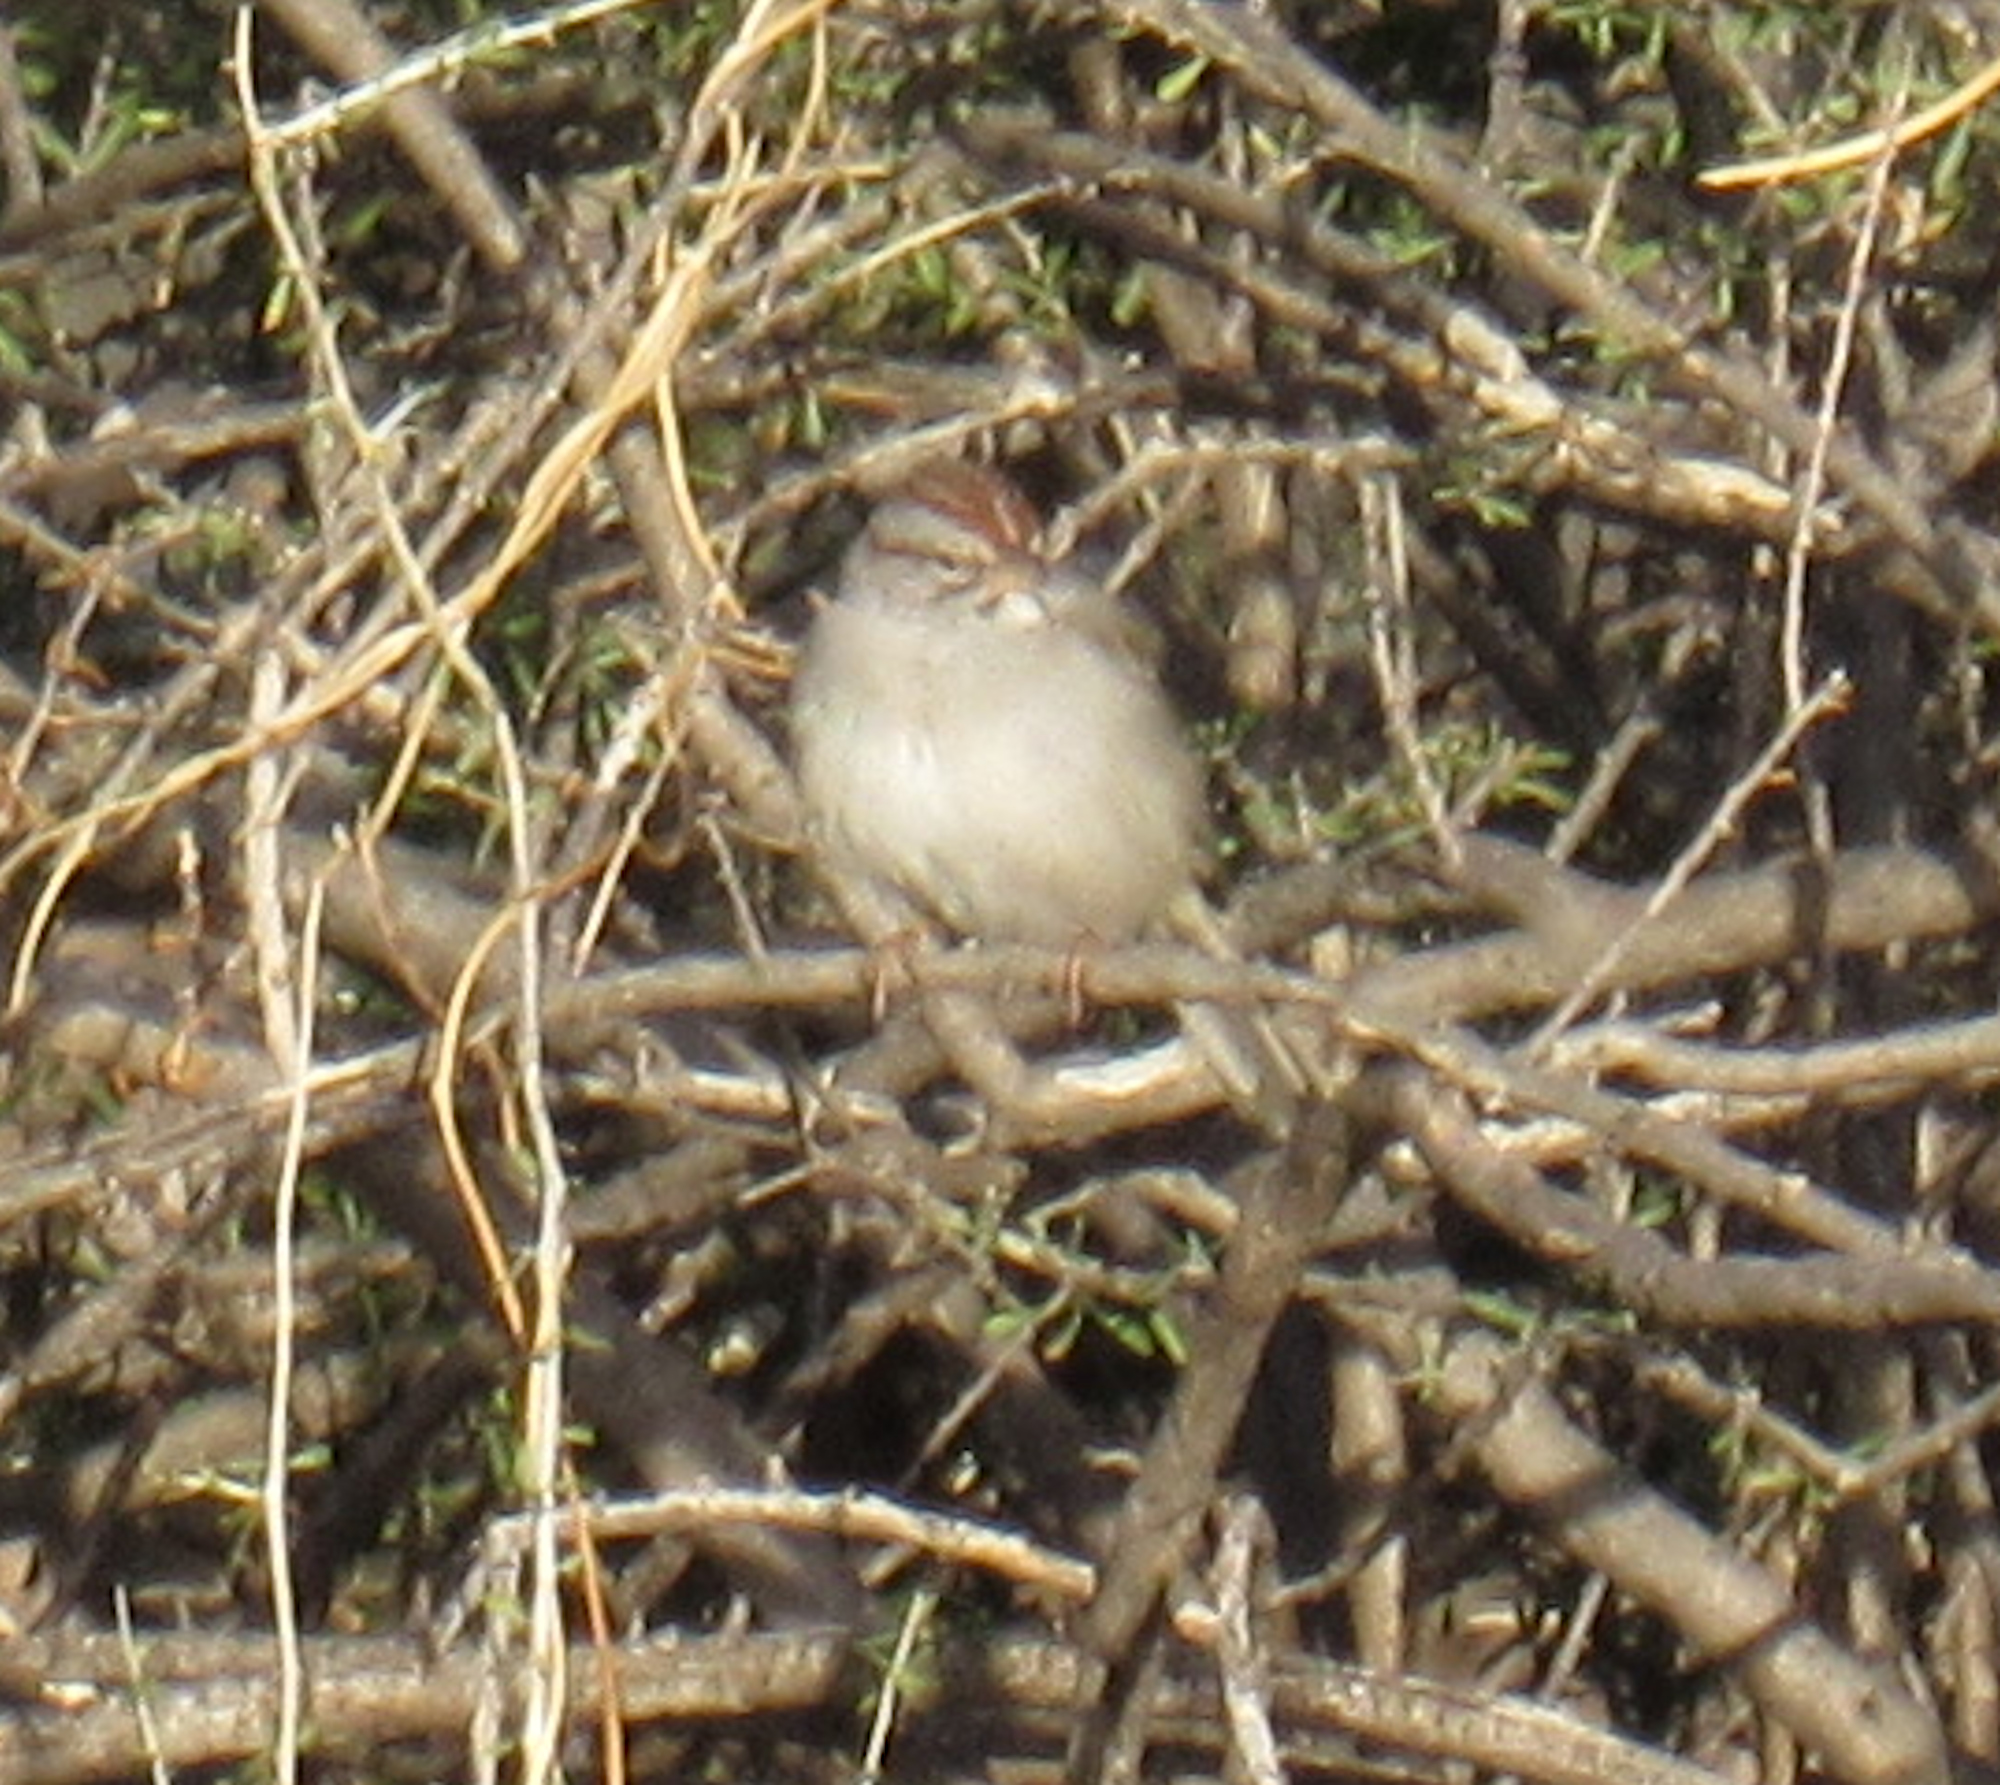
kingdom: Animalia
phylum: Chordata
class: Aves
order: Passeriformes
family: Passerellidae
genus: Peucaea
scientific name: Peucaea carpalis
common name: Rufous-winged sparrow
